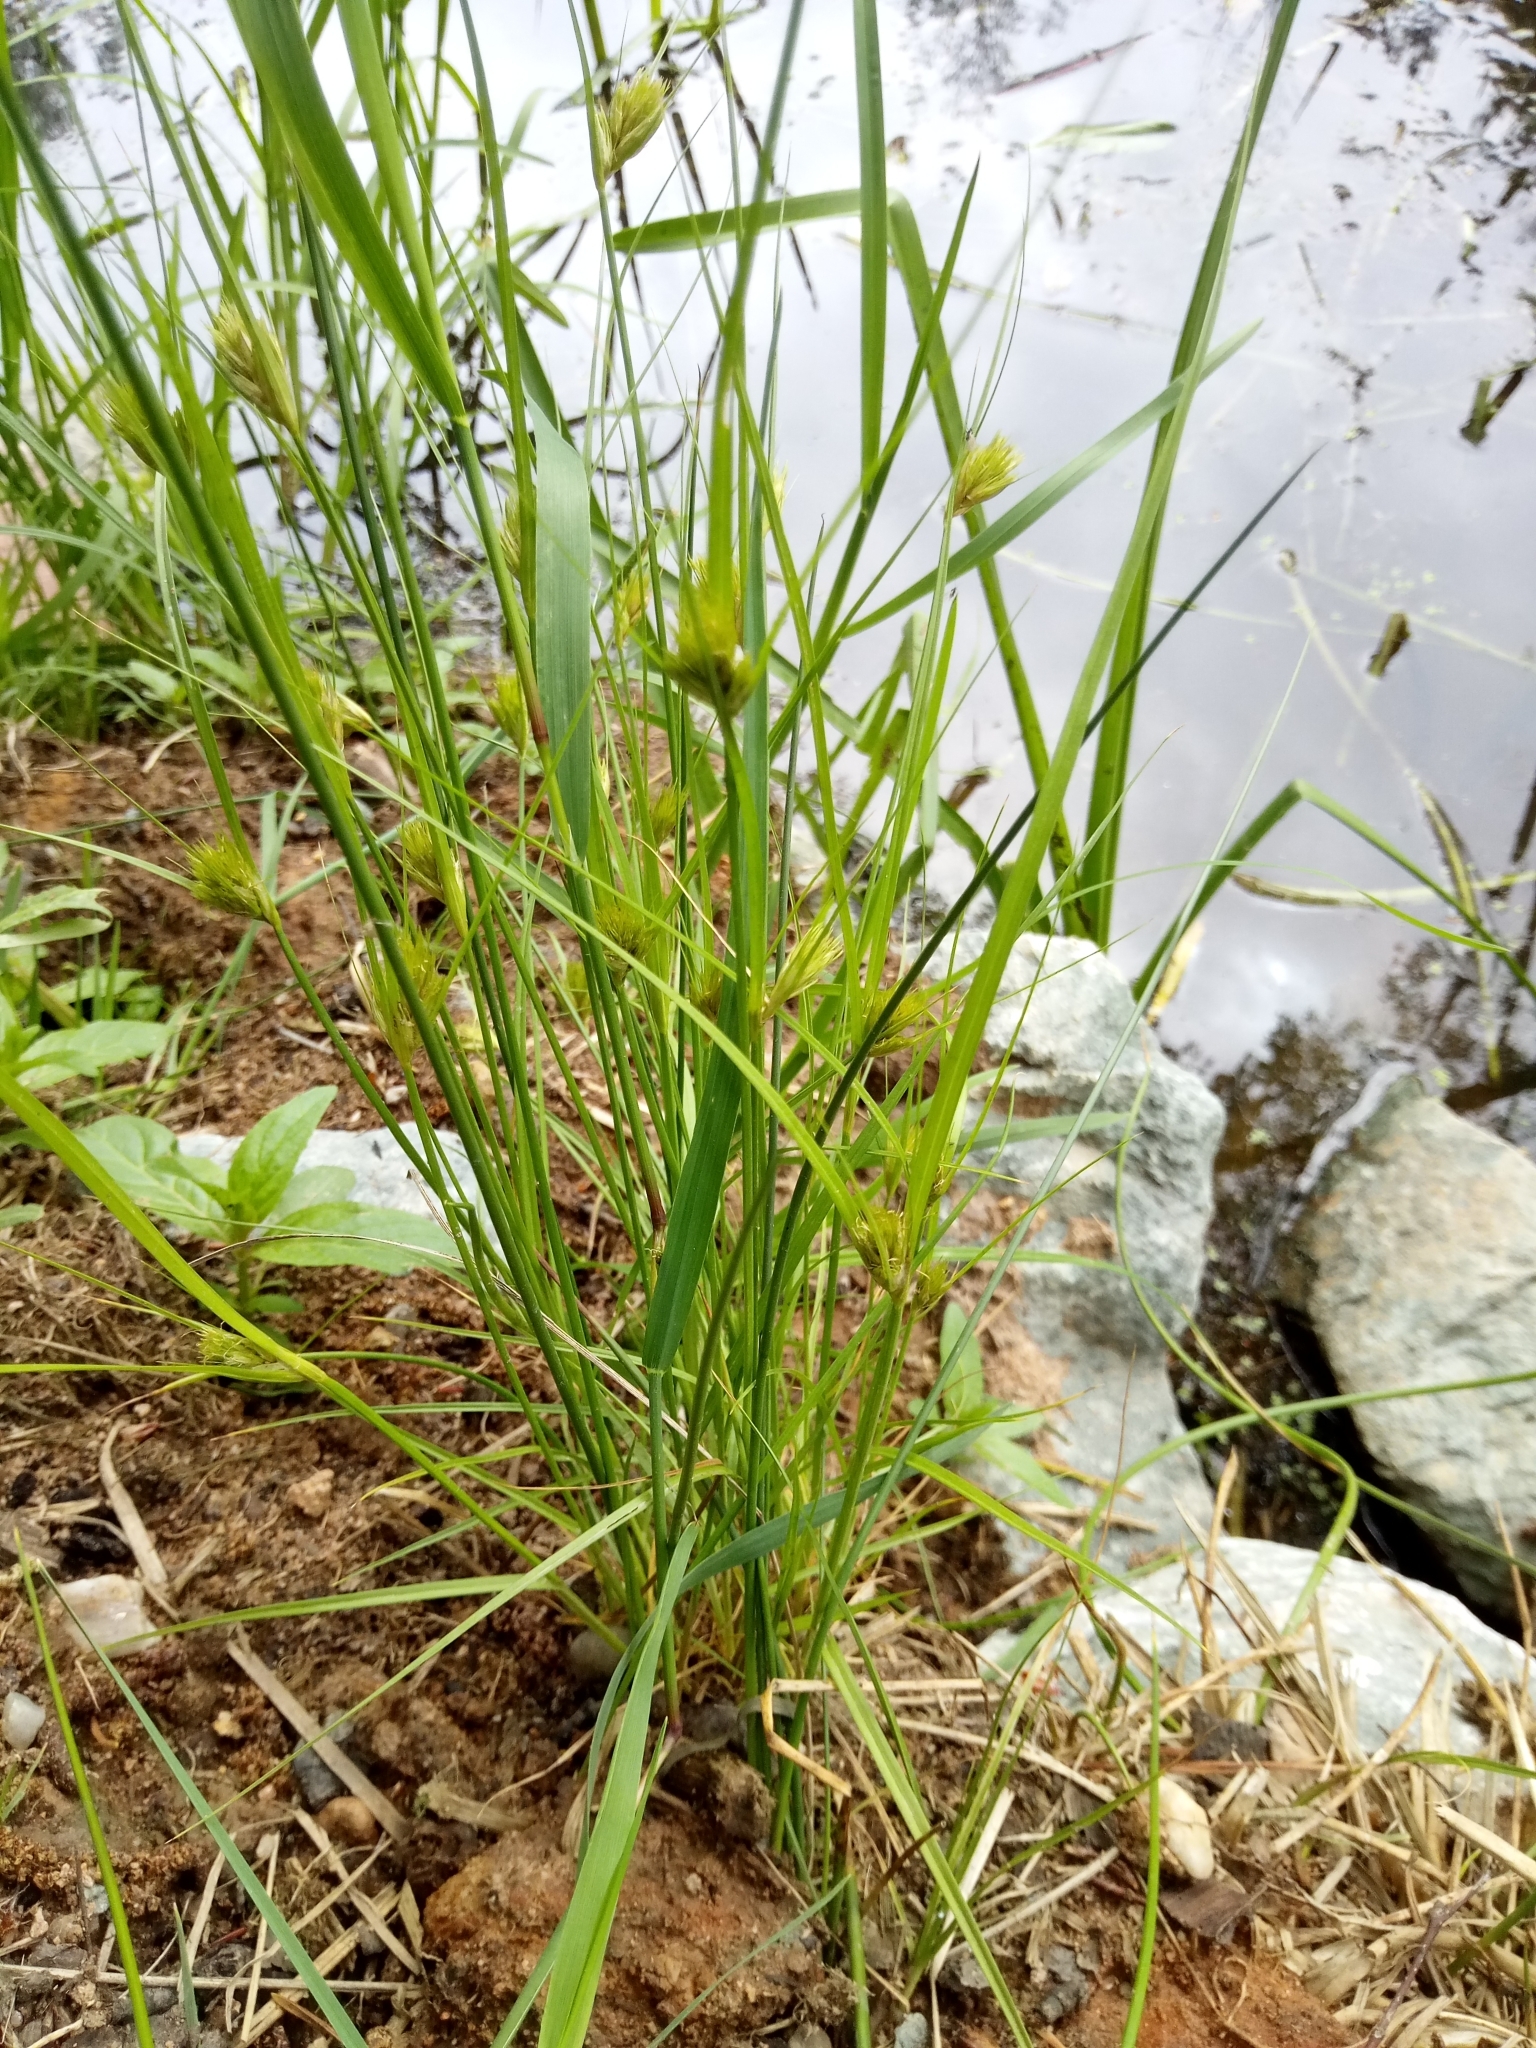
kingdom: Plantae
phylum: Tracheophyta
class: Liliopsida
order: Poales
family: Cyperaceae
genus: Carex
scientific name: Carex bohemica
